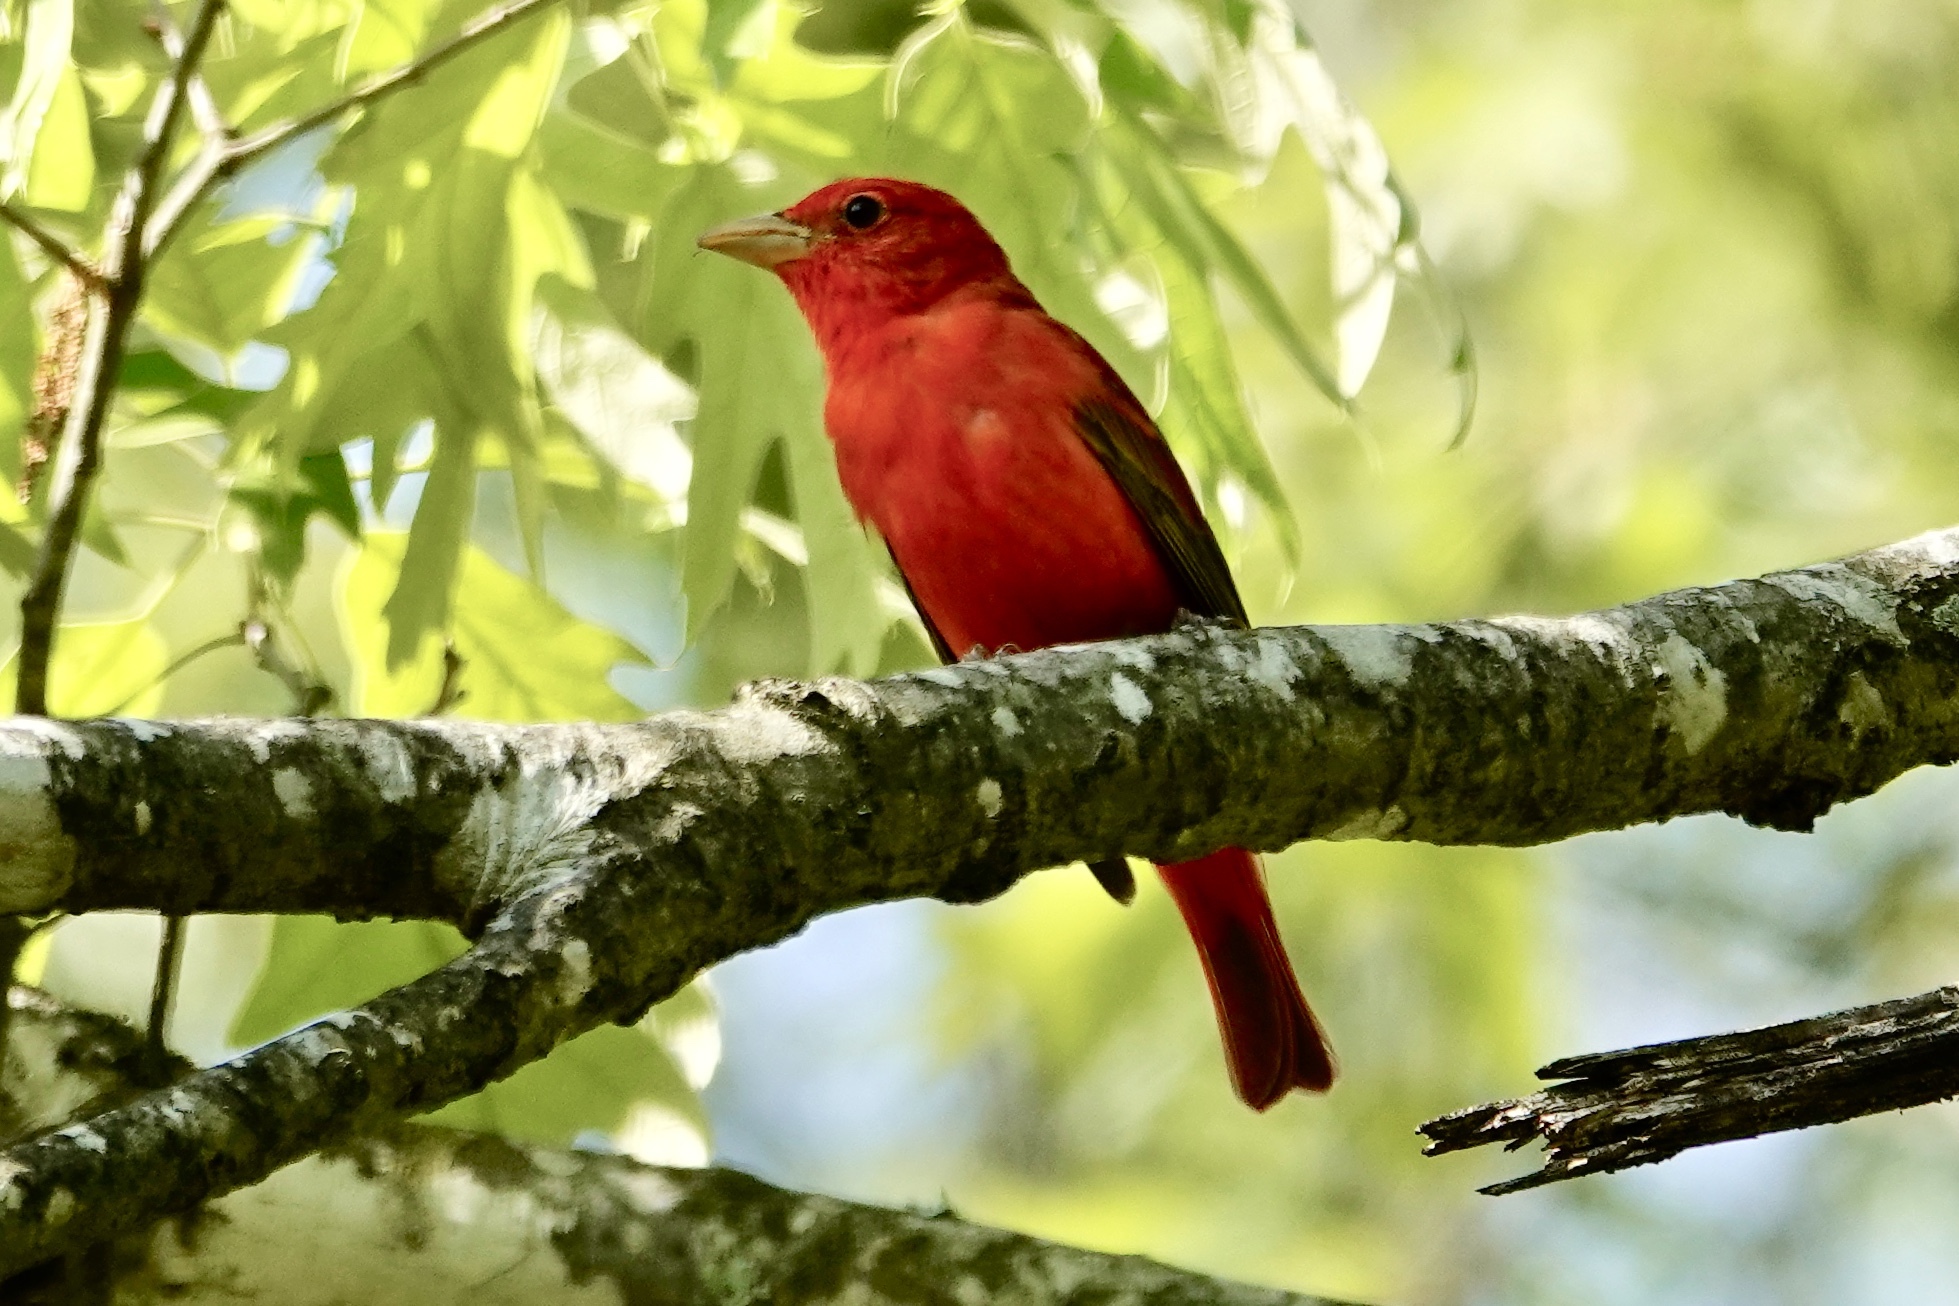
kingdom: Animalia
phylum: Chordata
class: Aves
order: Passeriformes
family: Cardinalidae
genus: Piranga
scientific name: Piranga rubra
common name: Summer tanager
